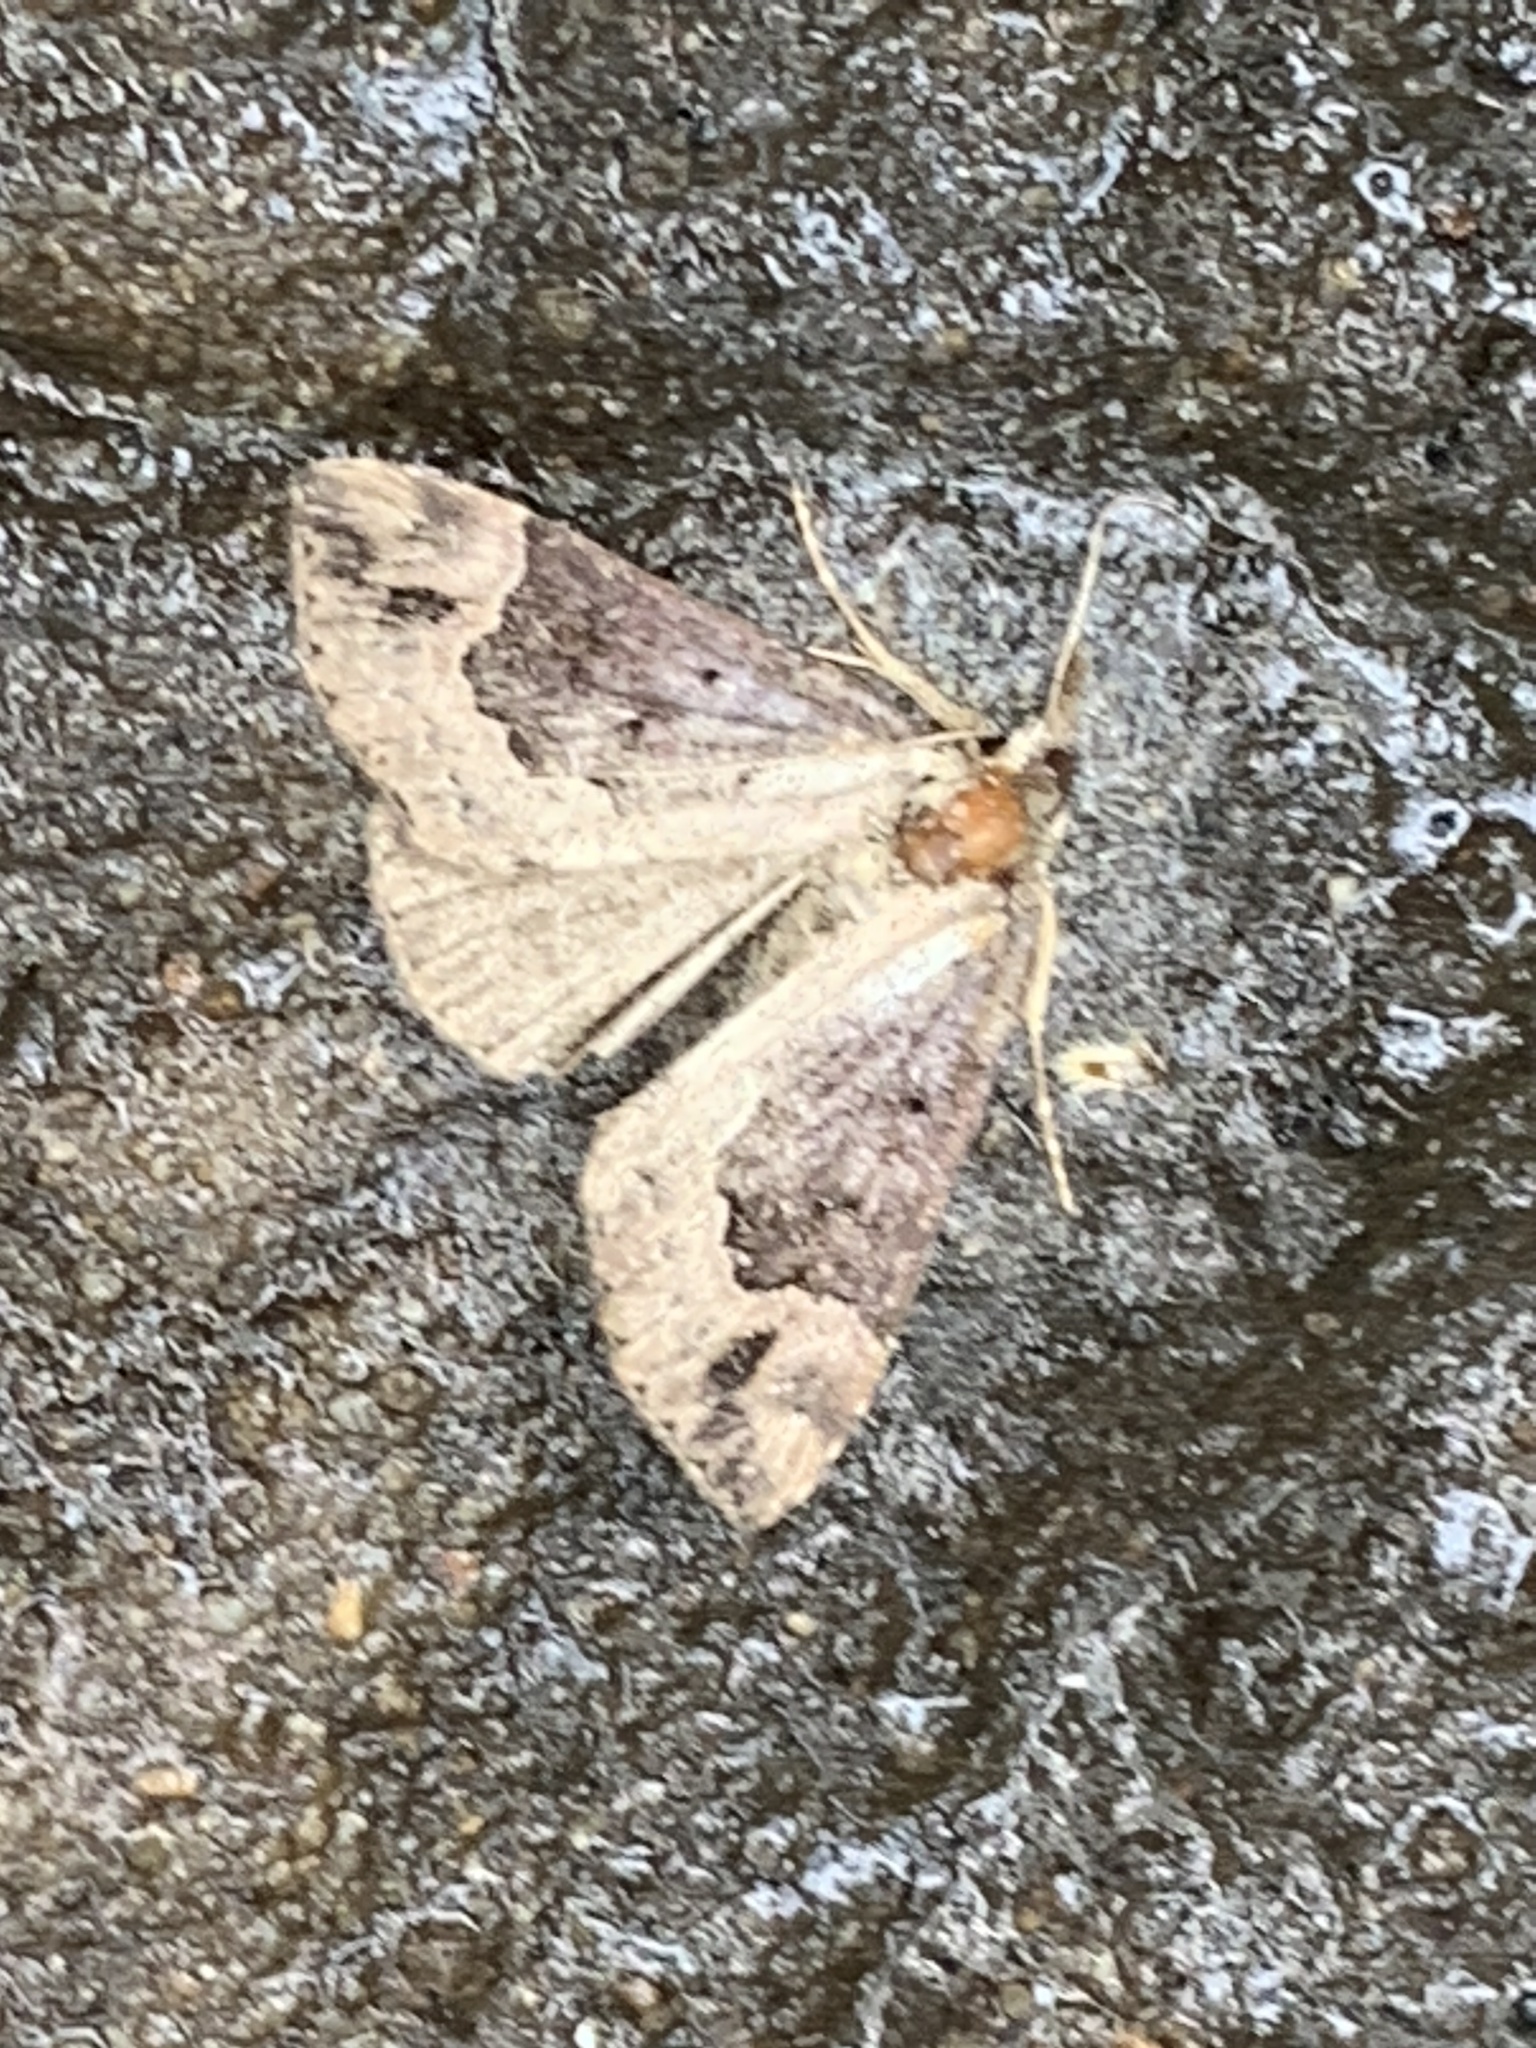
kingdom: Animalia
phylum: Arthropoda
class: Insecta
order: Lepidoptera
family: Erebidae
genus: Hypena
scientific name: Hypena baltimoralis
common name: Baltimore snout
